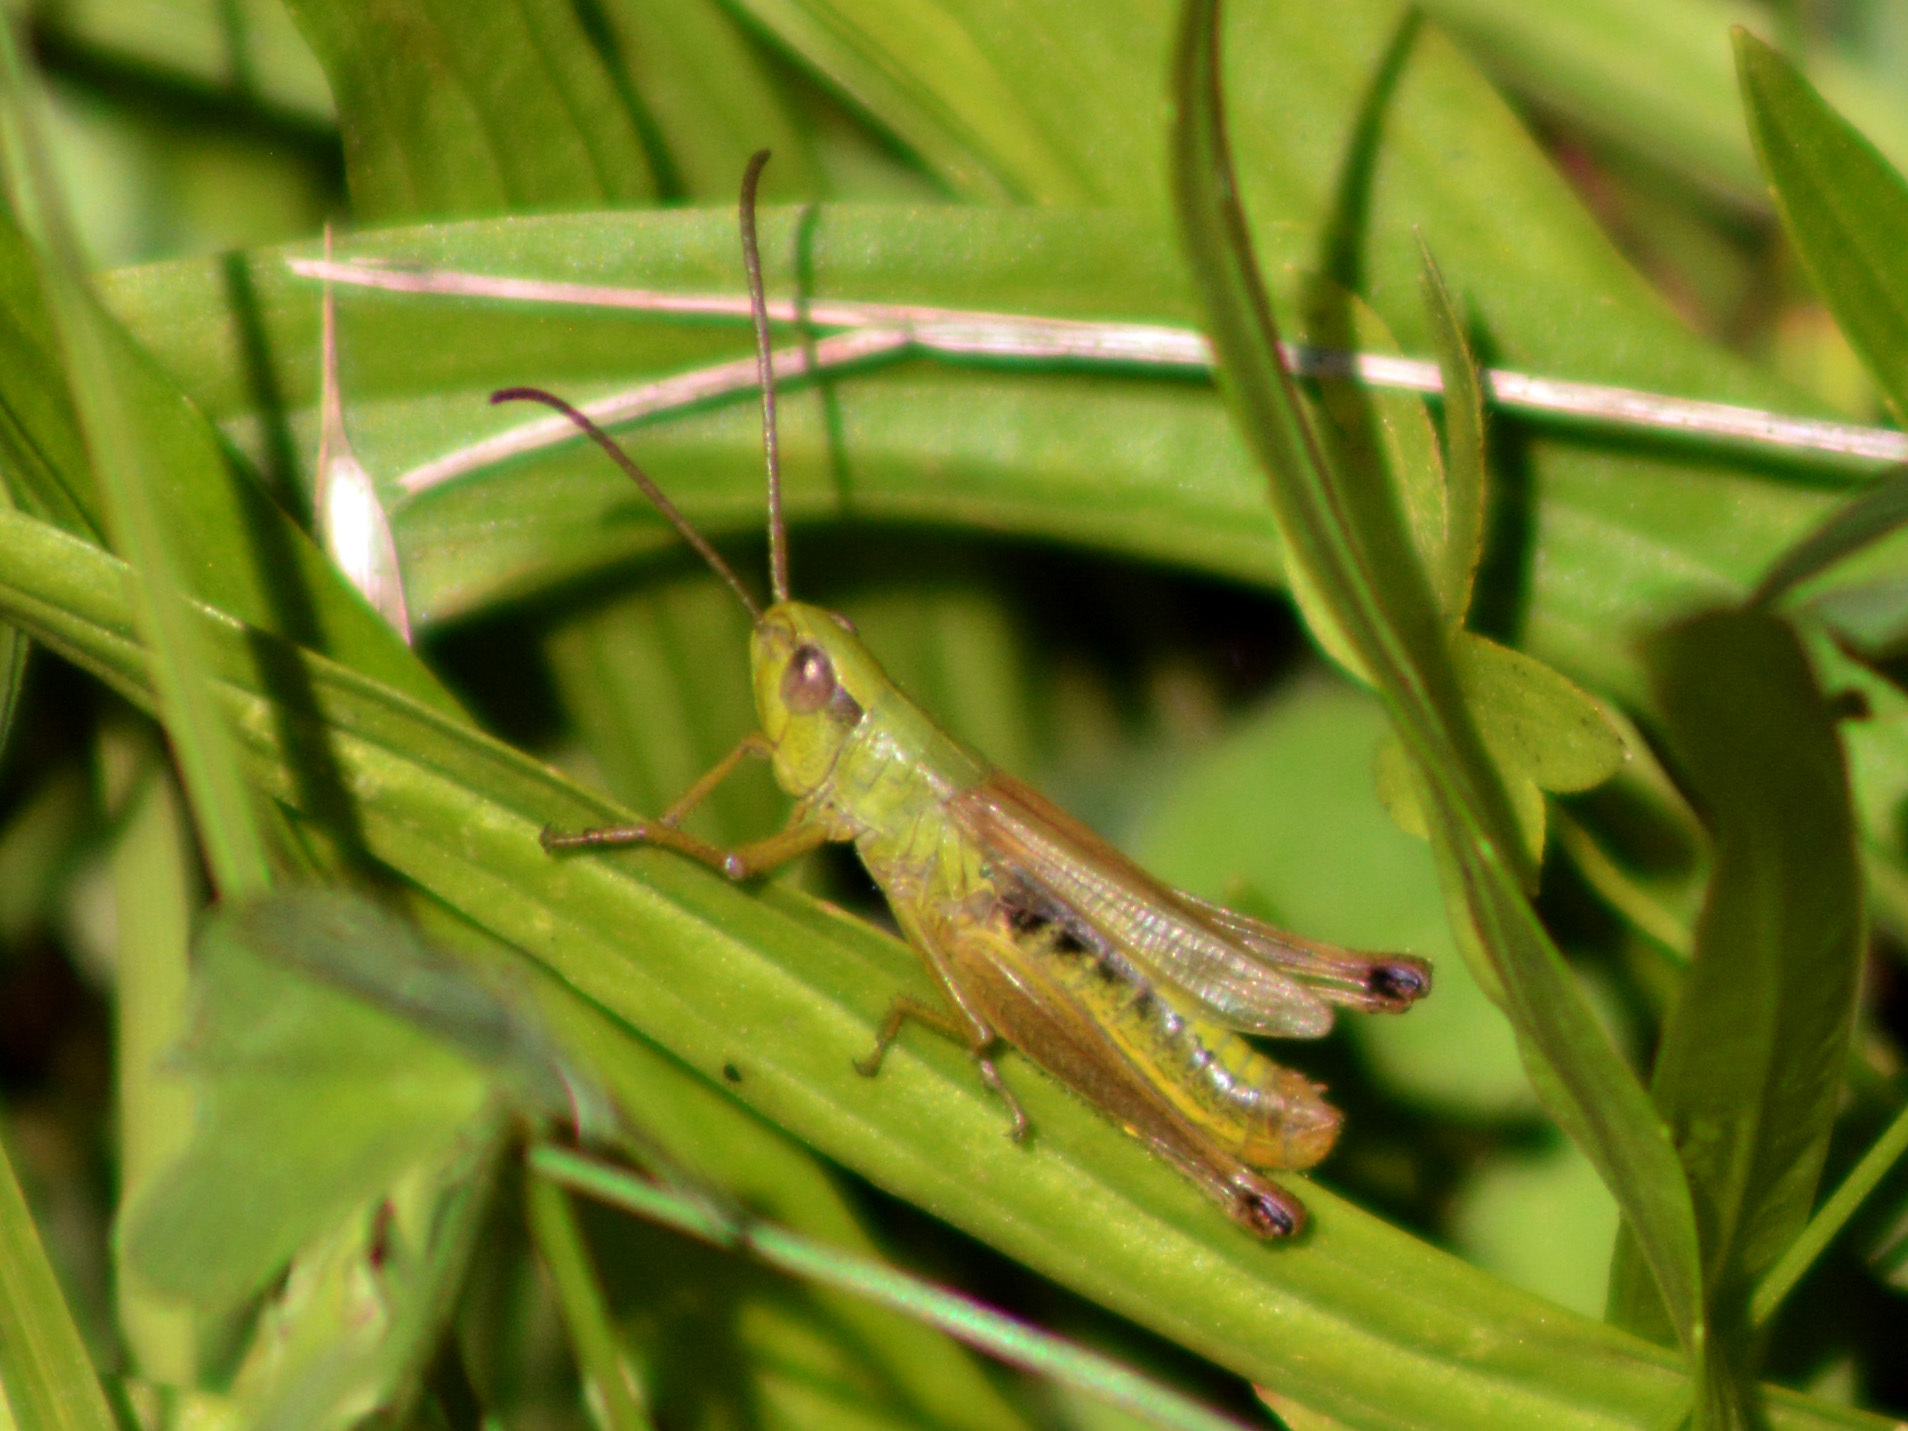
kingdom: Animalia
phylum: Arthropoda
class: Insecta
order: Orthoptera
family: Acrididae
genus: Pseudochorthippus
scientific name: Pseudochorthippus parallelus
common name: Meadow grasshopper
